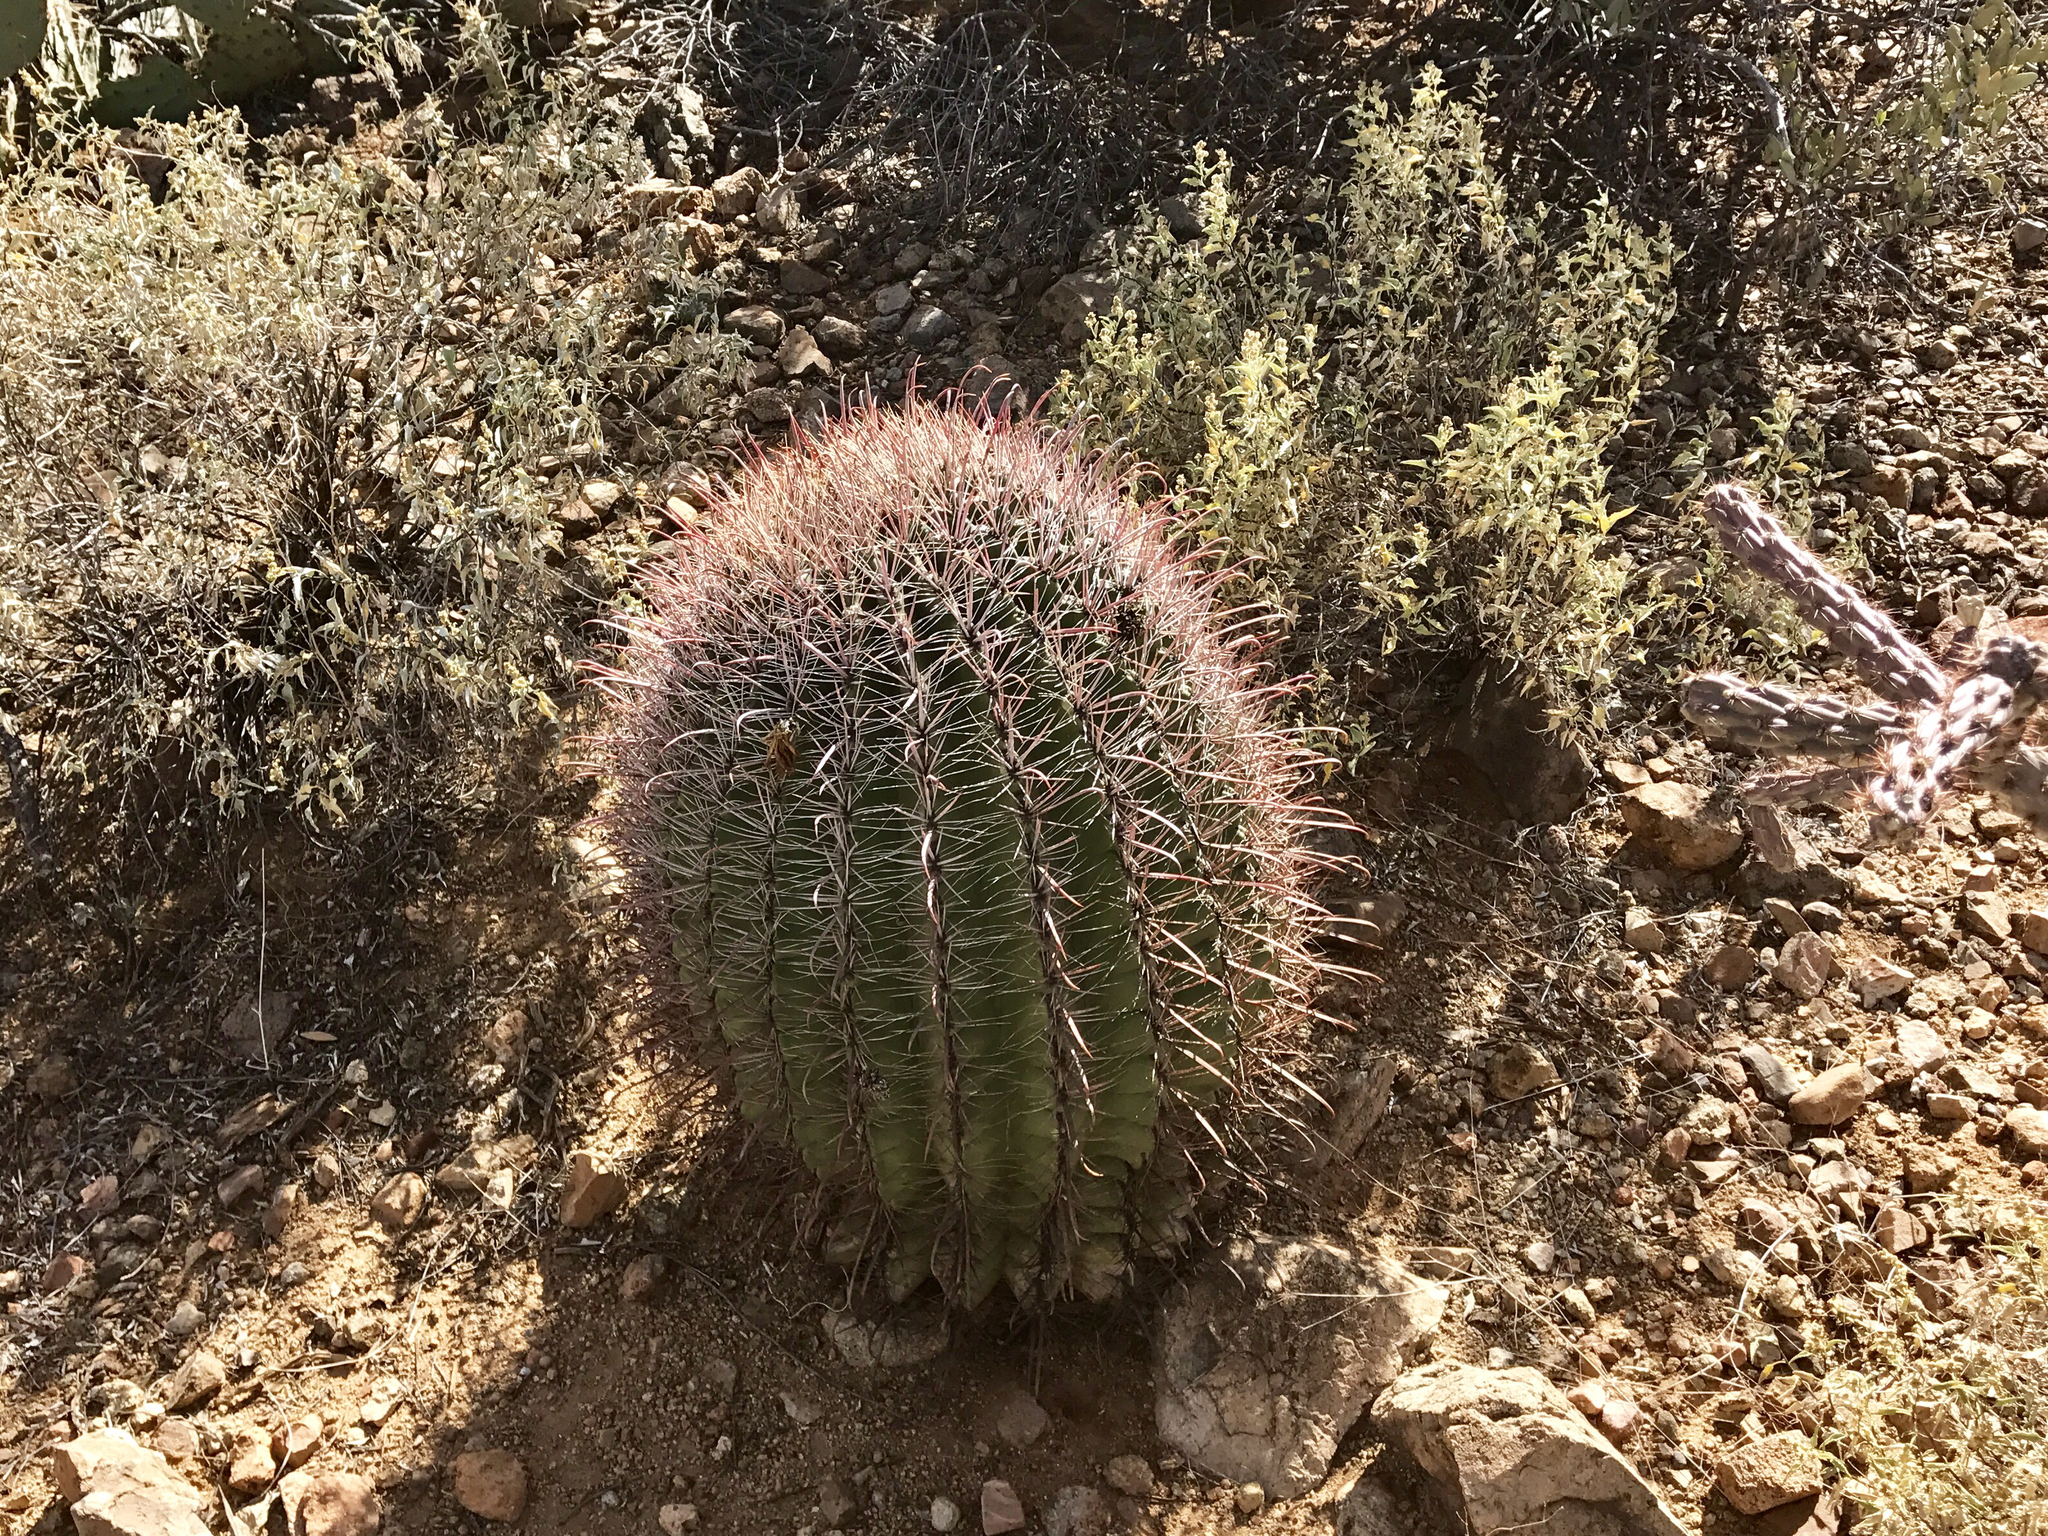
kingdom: Plantae
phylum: Tracheophyta
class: Magnoliopsida
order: Caryophyllales
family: Cactaceae
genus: Ferocactus
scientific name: Ferocactus wislizeni
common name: Candy barrel cactus
